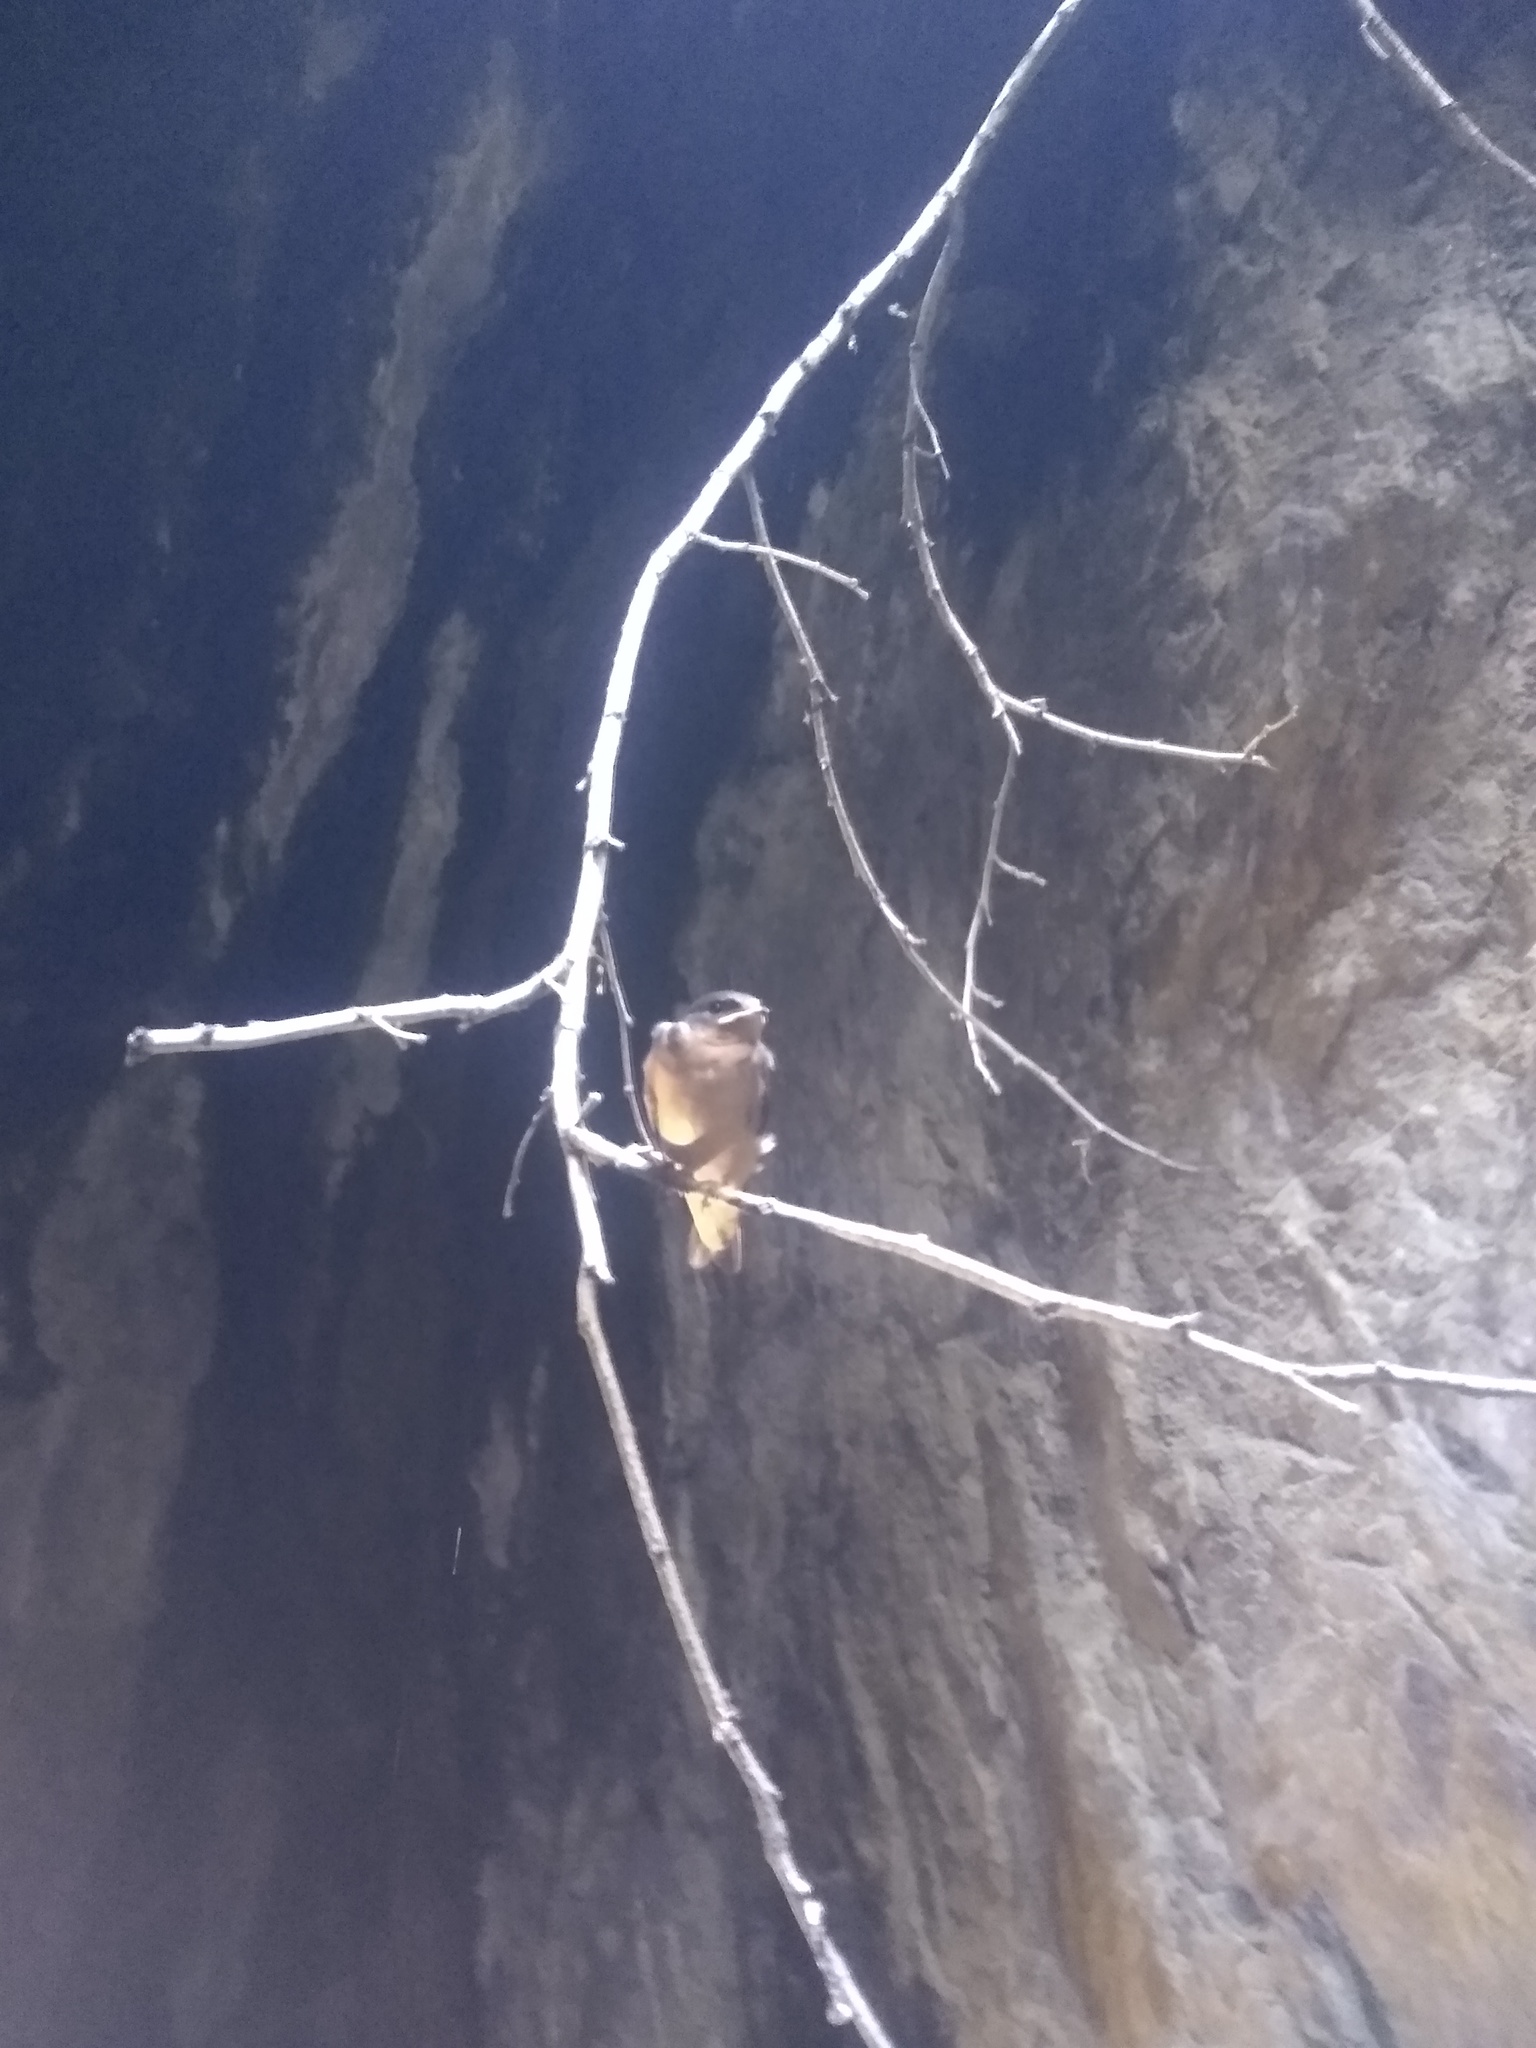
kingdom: Animalia
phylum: Chordata
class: Aves
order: Passeriformes
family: Hirundinidae
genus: Hirundo
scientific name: Hirundo rustica
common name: Barn swallow
